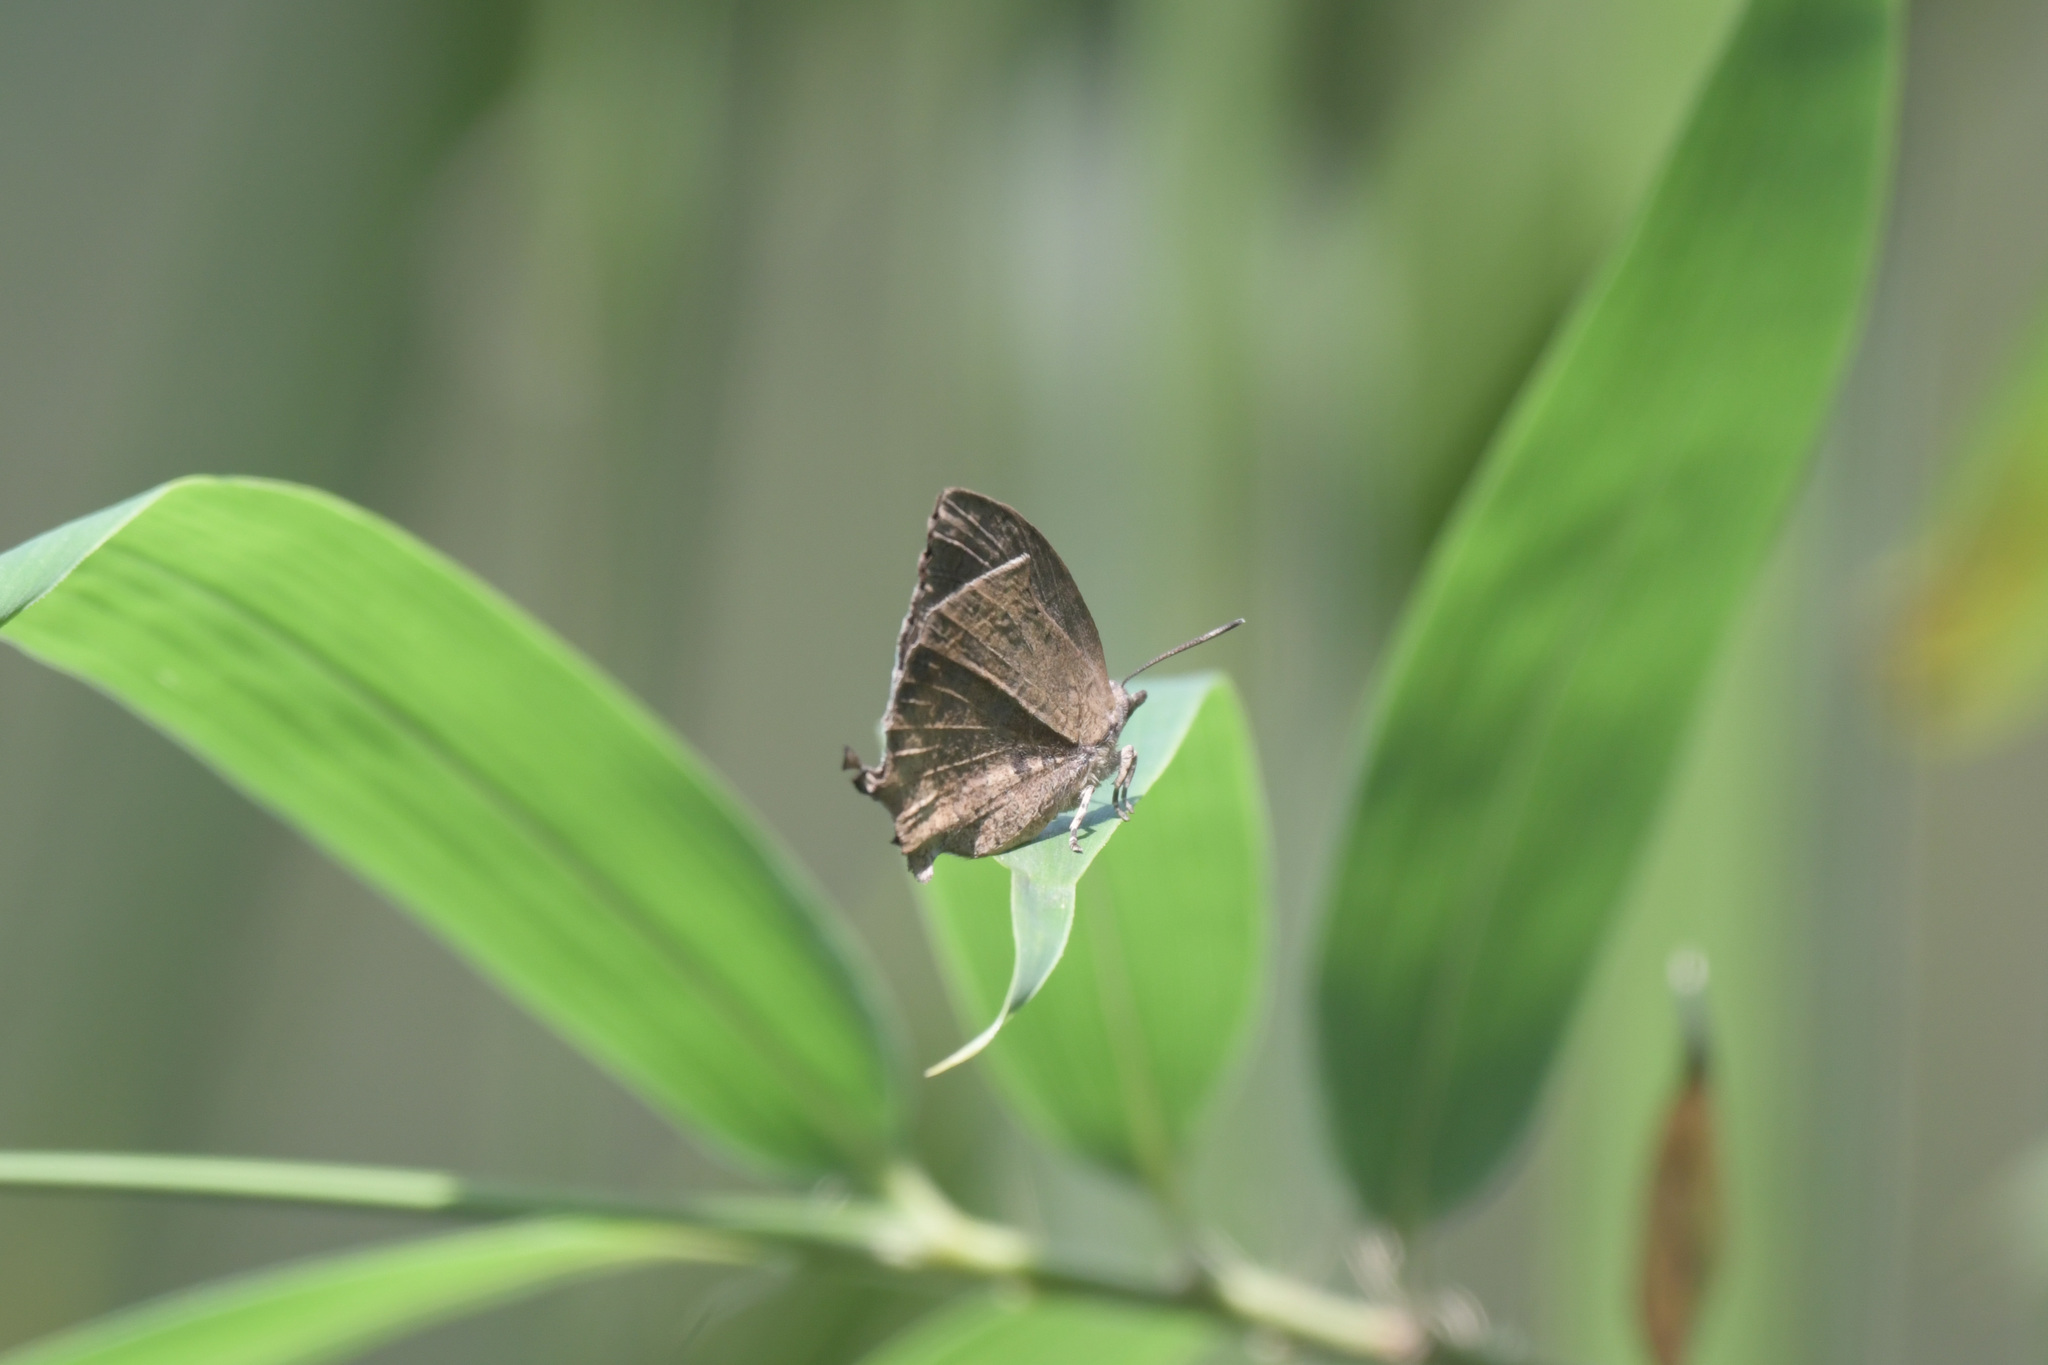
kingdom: Animalia
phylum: Arthropoda
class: Insecta
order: Lepidoptera
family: Lycaenidae
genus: Mahathala
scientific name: Mahathala ameria
